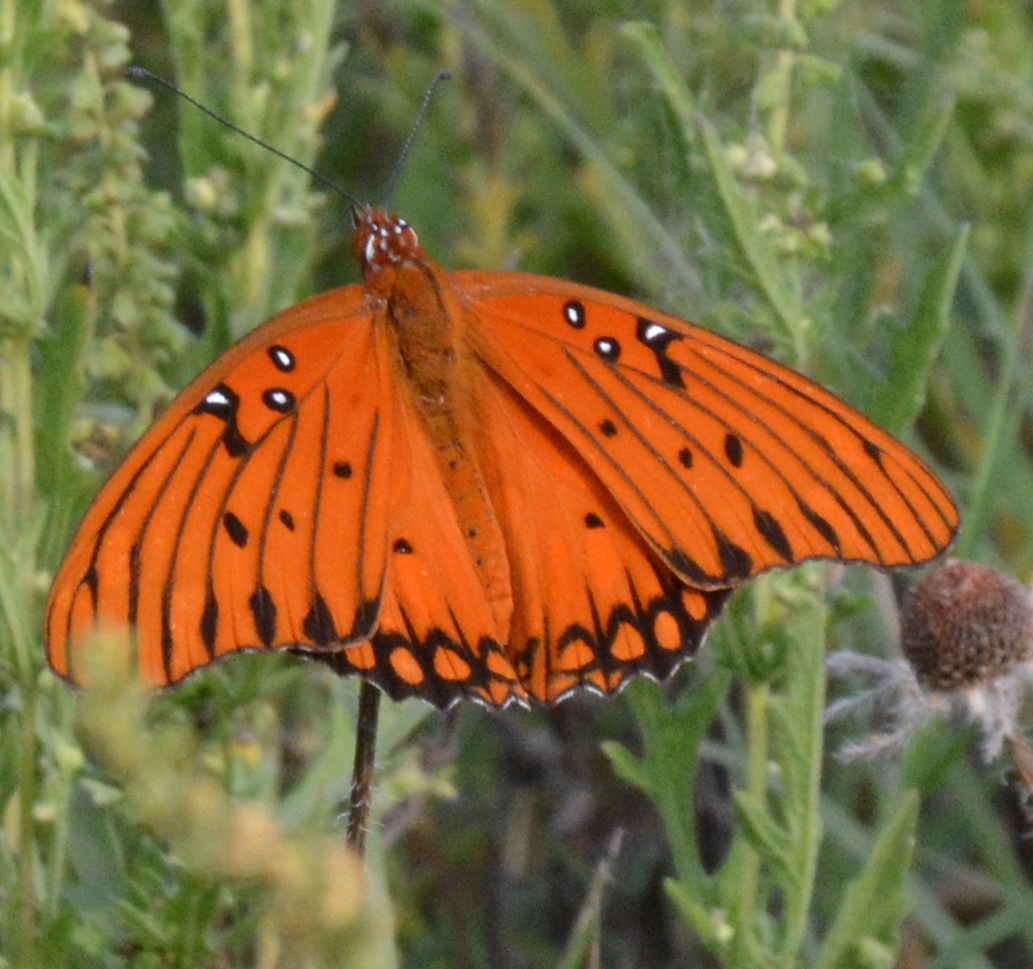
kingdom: Animalia
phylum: Arthropoda
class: Insecta
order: Lepidoptera
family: Nymphalidae
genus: Dione
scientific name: Dione vanillae
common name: Gulf fritillary
